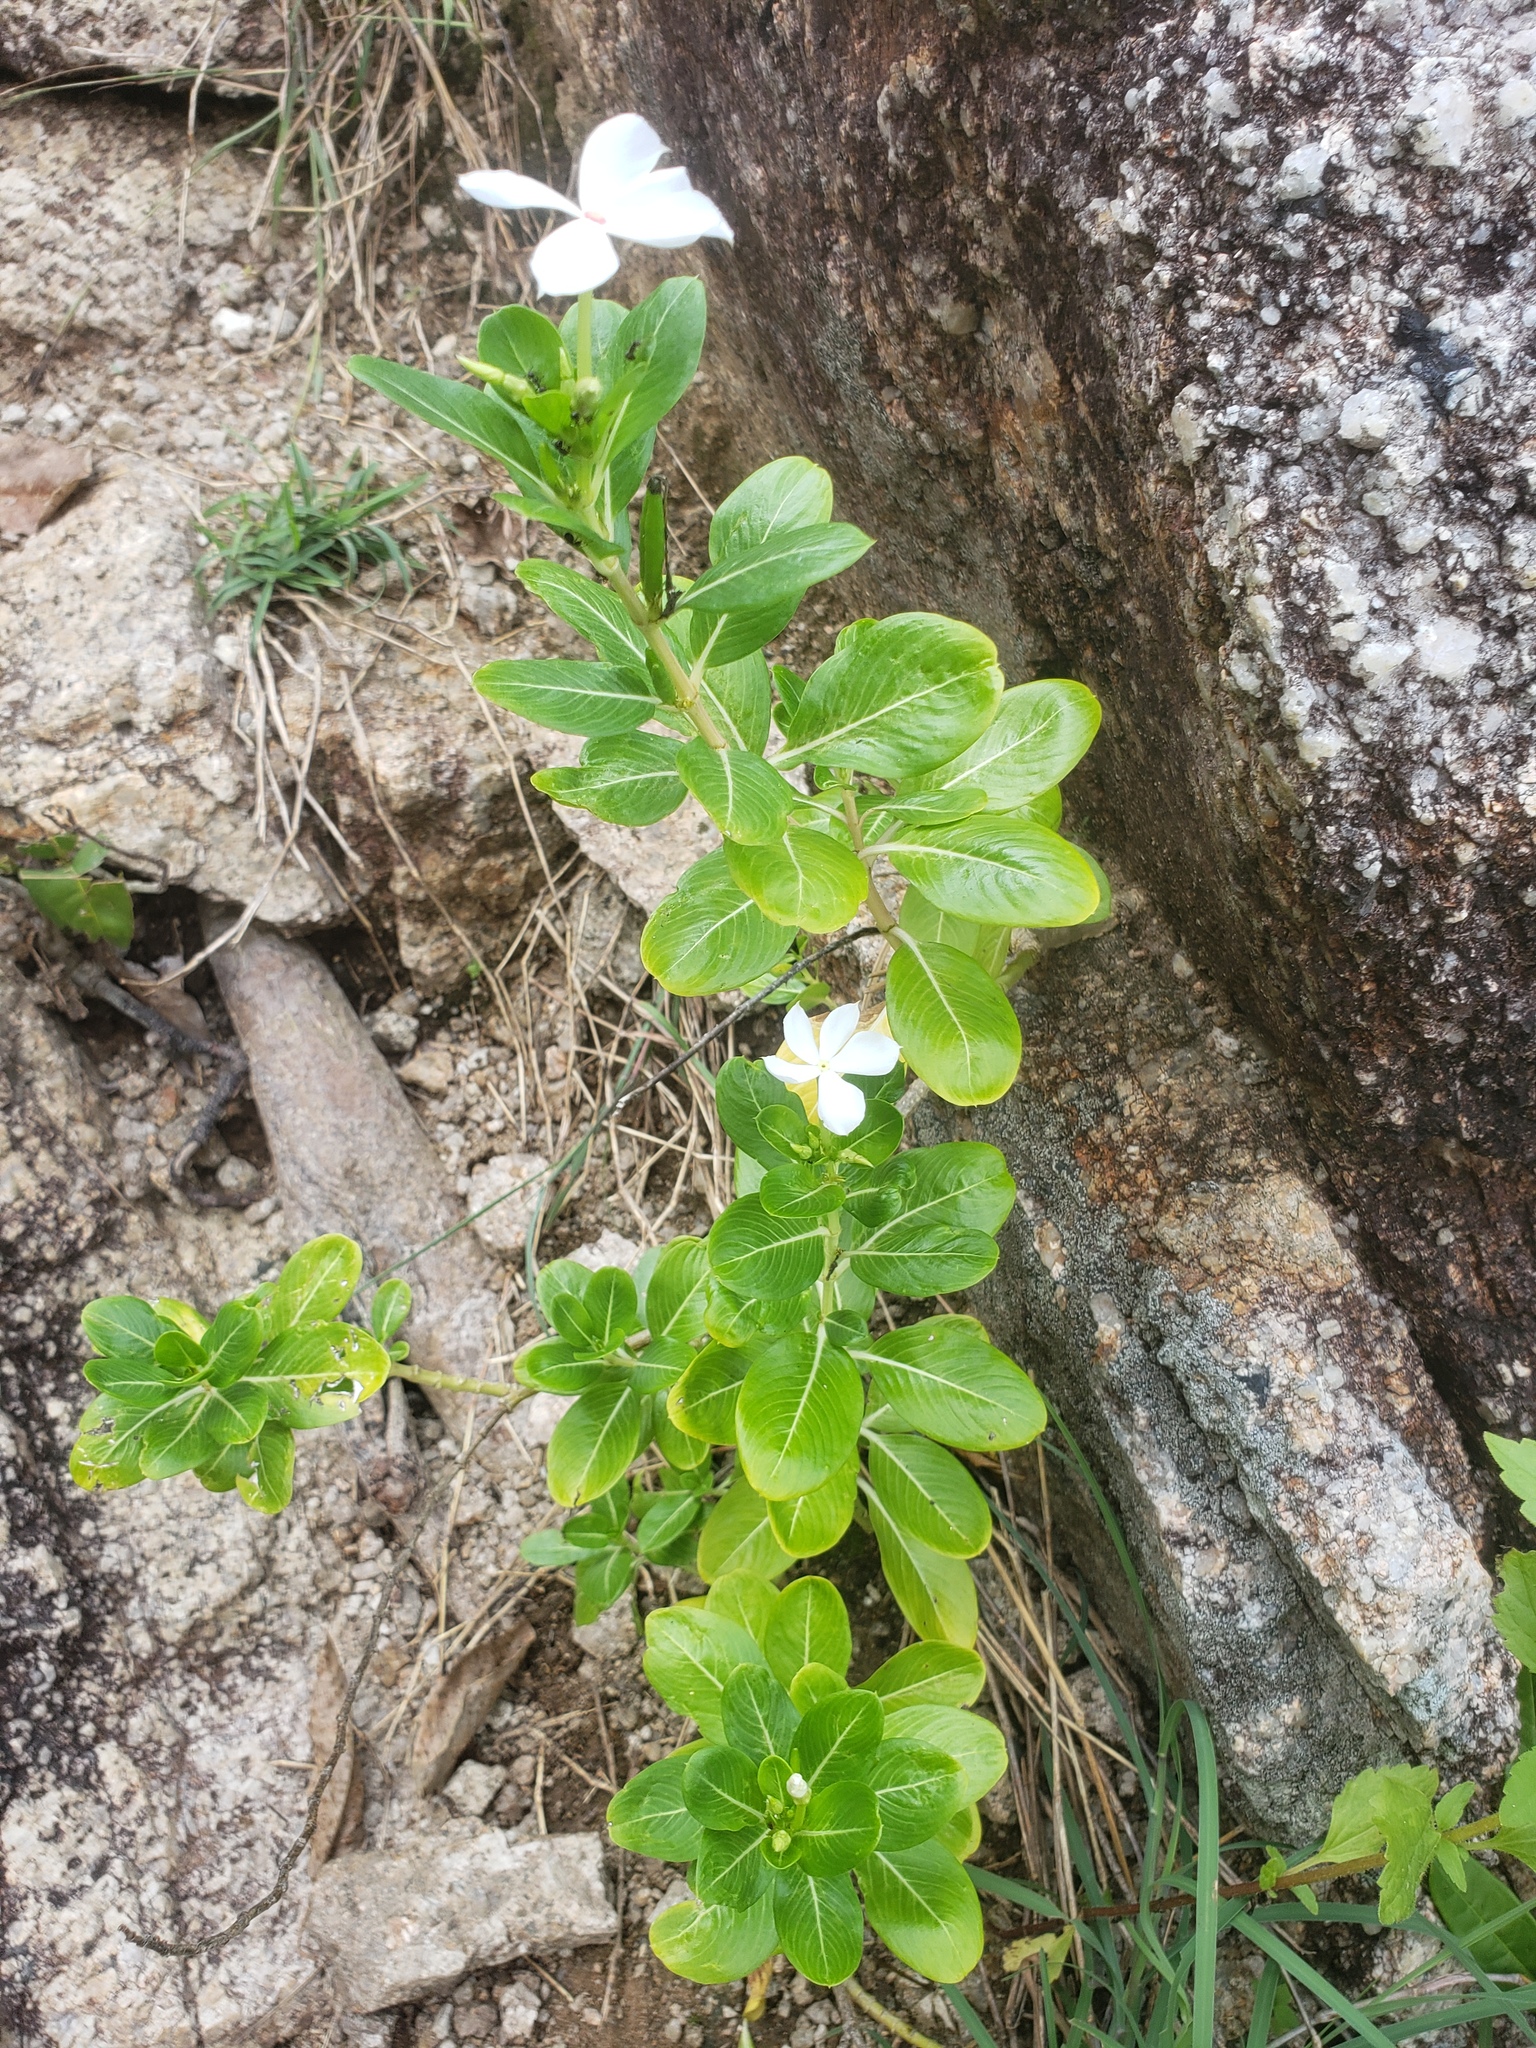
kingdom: Plantae
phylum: Tracheophyta
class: Magnoliopsida
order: Gentianales
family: Apocynaceae
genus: Catharanthus
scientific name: Catharanthus roseus
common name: Madagascar periwinkle
